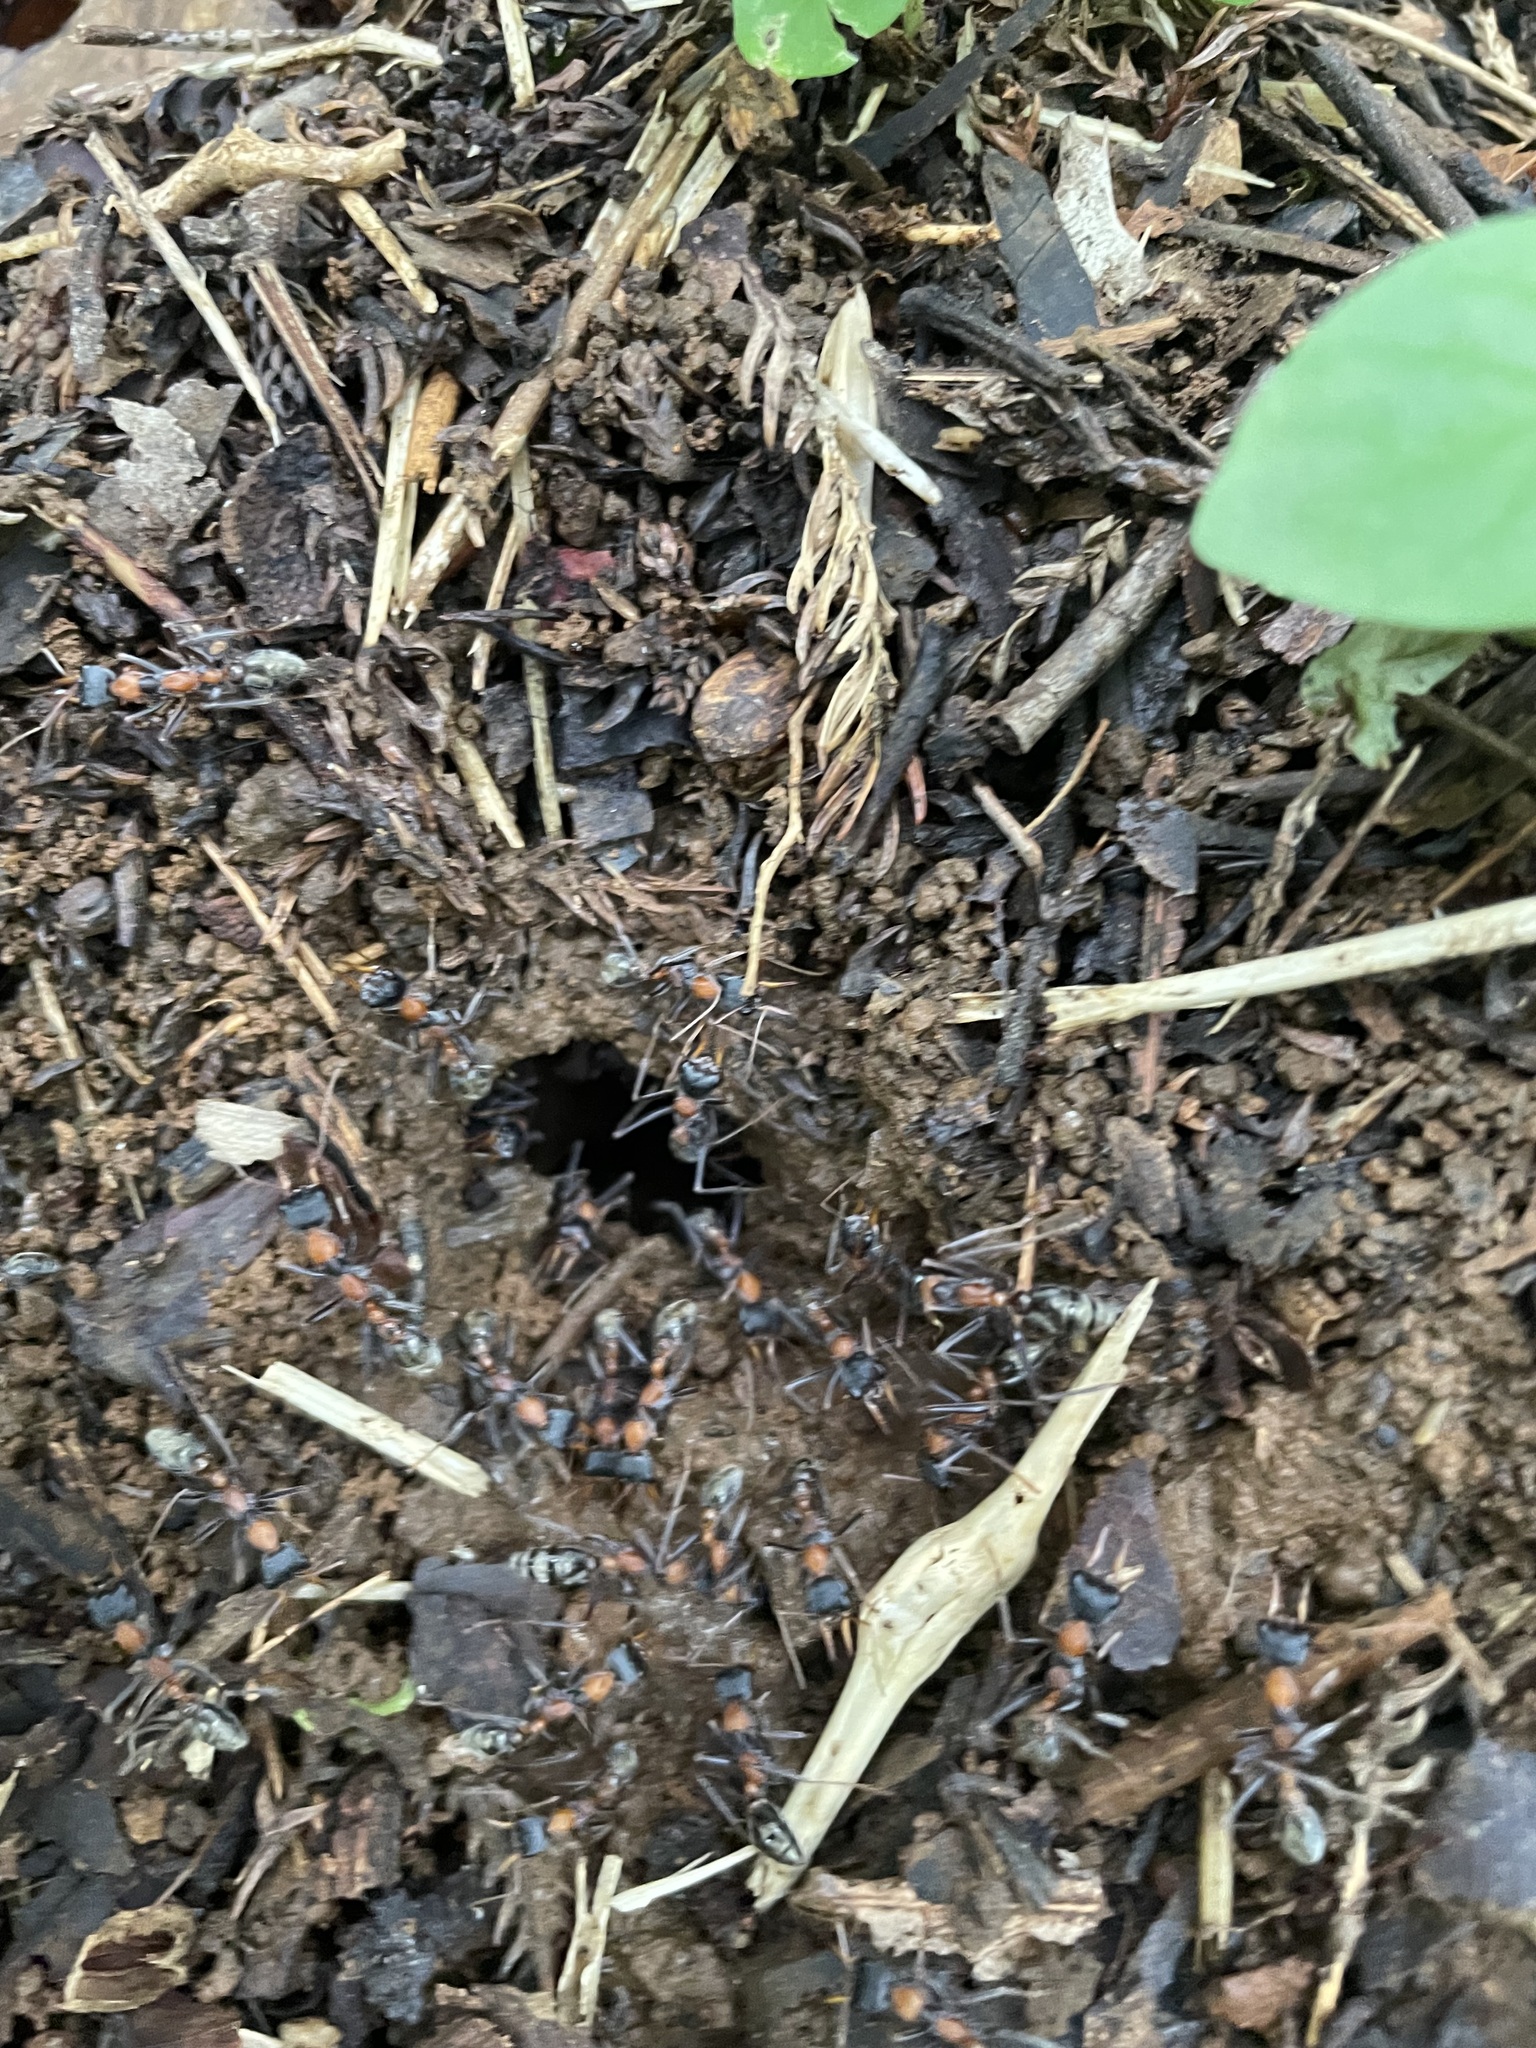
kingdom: Animalia
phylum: Arthropoda
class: Insecta
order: Hymenoptera
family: Formicidae
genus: Myrmecia
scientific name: Myrmecia nigrocincta
